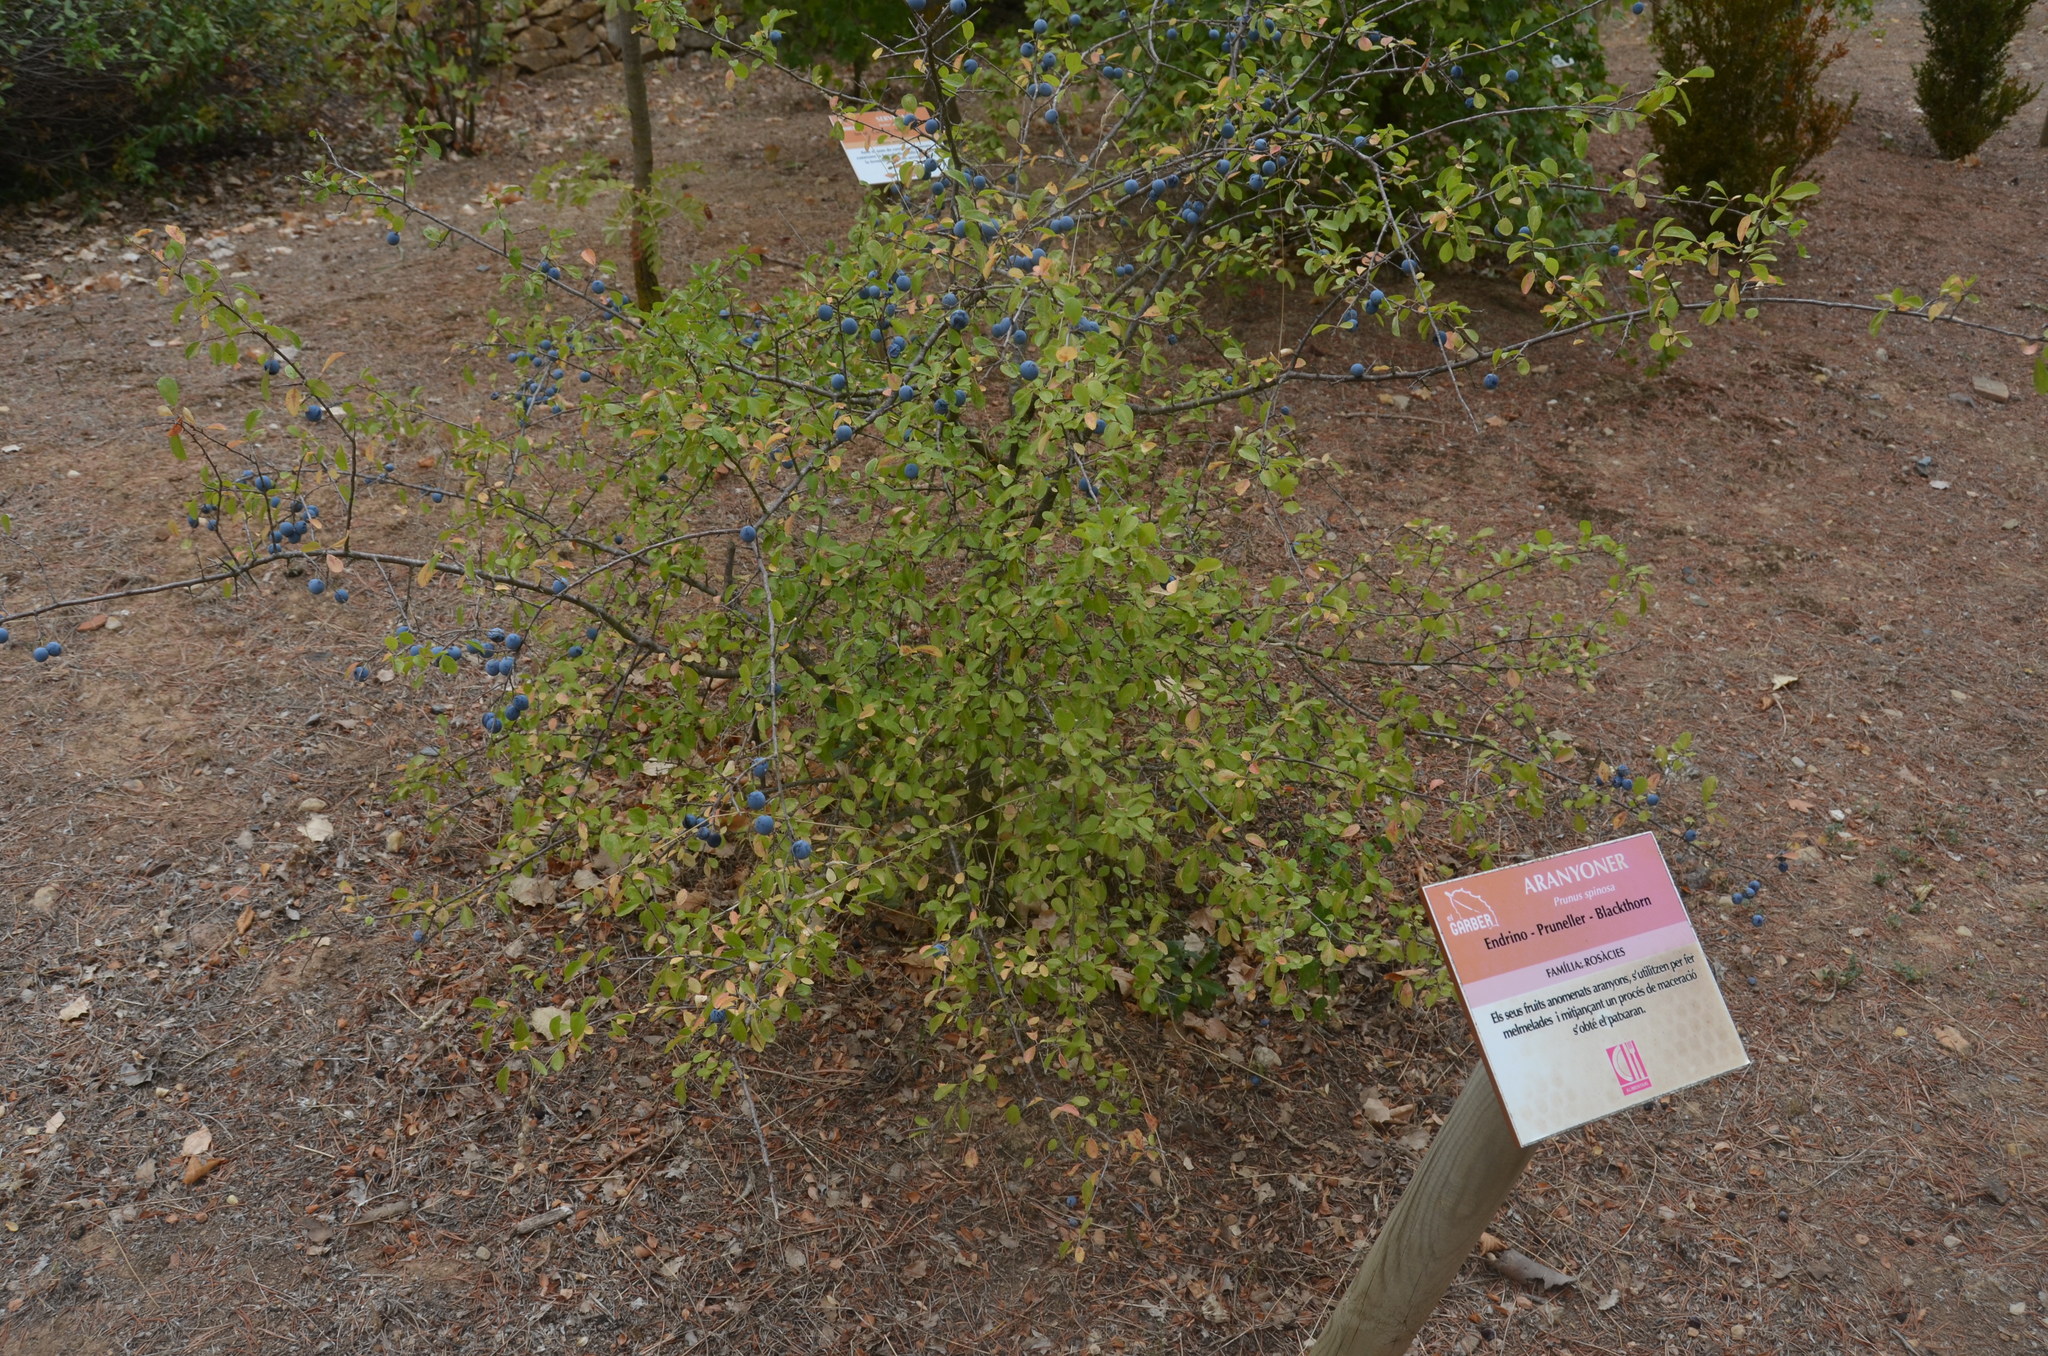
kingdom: Plantae
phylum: Tracheophyta
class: Magnoliopsida
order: Rosales
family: Rosaceae
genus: Prunus
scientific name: Prunus spinosa
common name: Blackthorn
